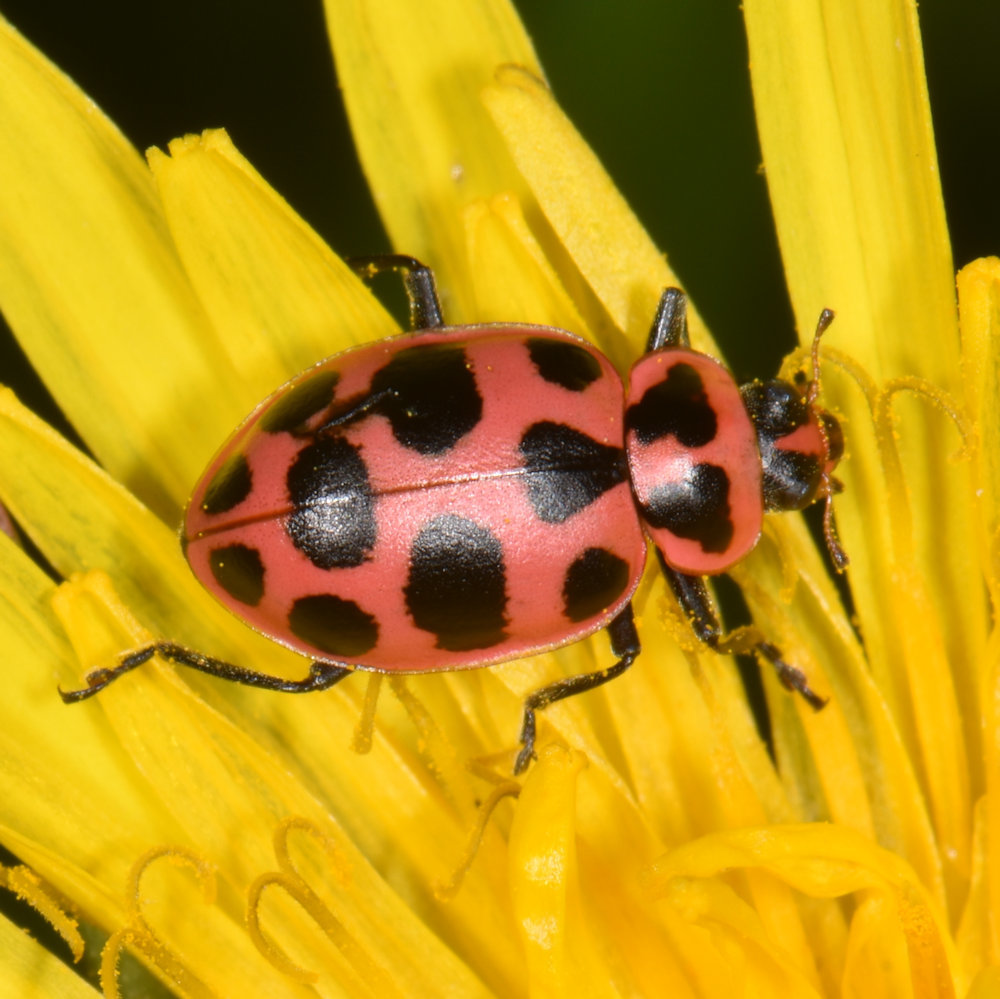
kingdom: Animalia
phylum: Arthropoda
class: Insecta
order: Coleoptera
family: Coccinellidae
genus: Coleomegilla
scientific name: Coleomegilla maculata
